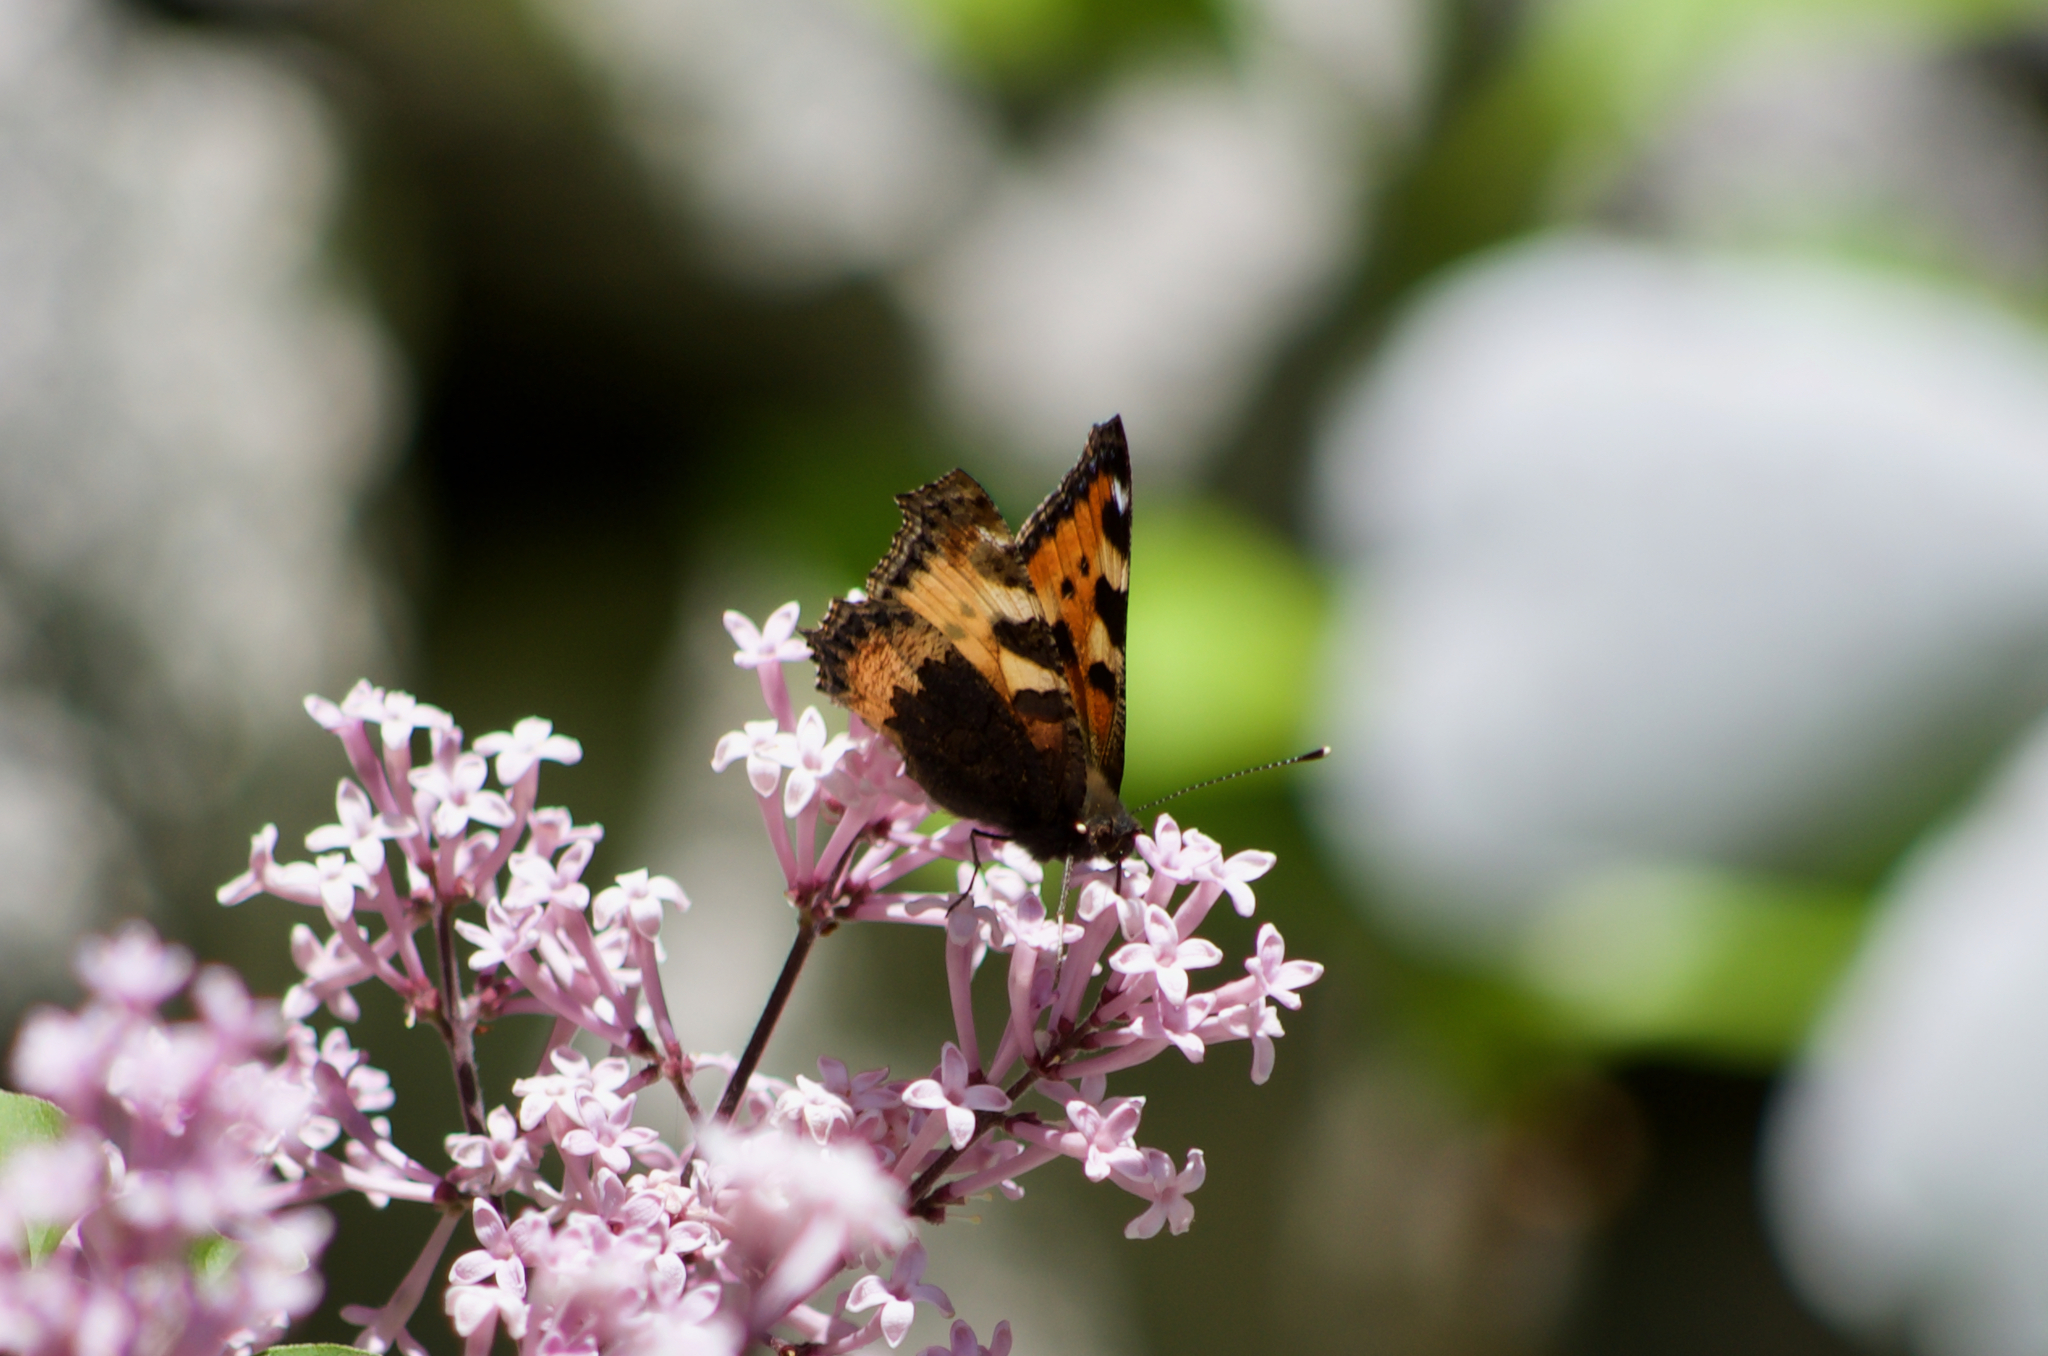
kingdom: Animalia
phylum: Arthropoda
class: Insecta
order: Lepidoptera
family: Nymphalidae
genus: Aglais
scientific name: Aglais urticae
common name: Small tortoiseshell
